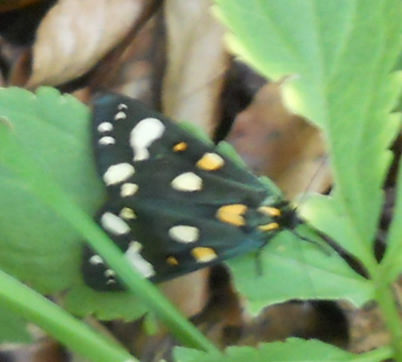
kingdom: Animalia
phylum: Arthropoda
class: Insecta
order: Lepidoptera
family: Erebidae
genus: Callimorpha
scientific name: Callimorpha dominula
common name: Scarlet tiger
